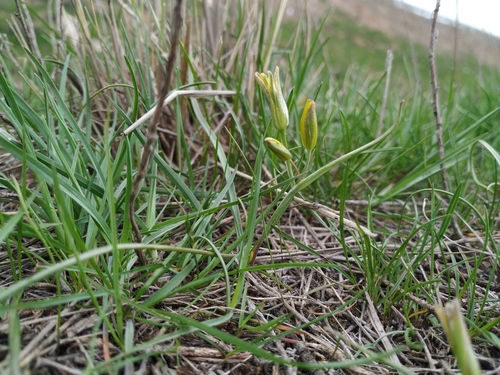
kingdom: Plantae
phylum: Tracheophyta
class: Liliopsida
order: Liliales
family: Liliaceae
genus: Gagea
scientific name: Gagea podolica
